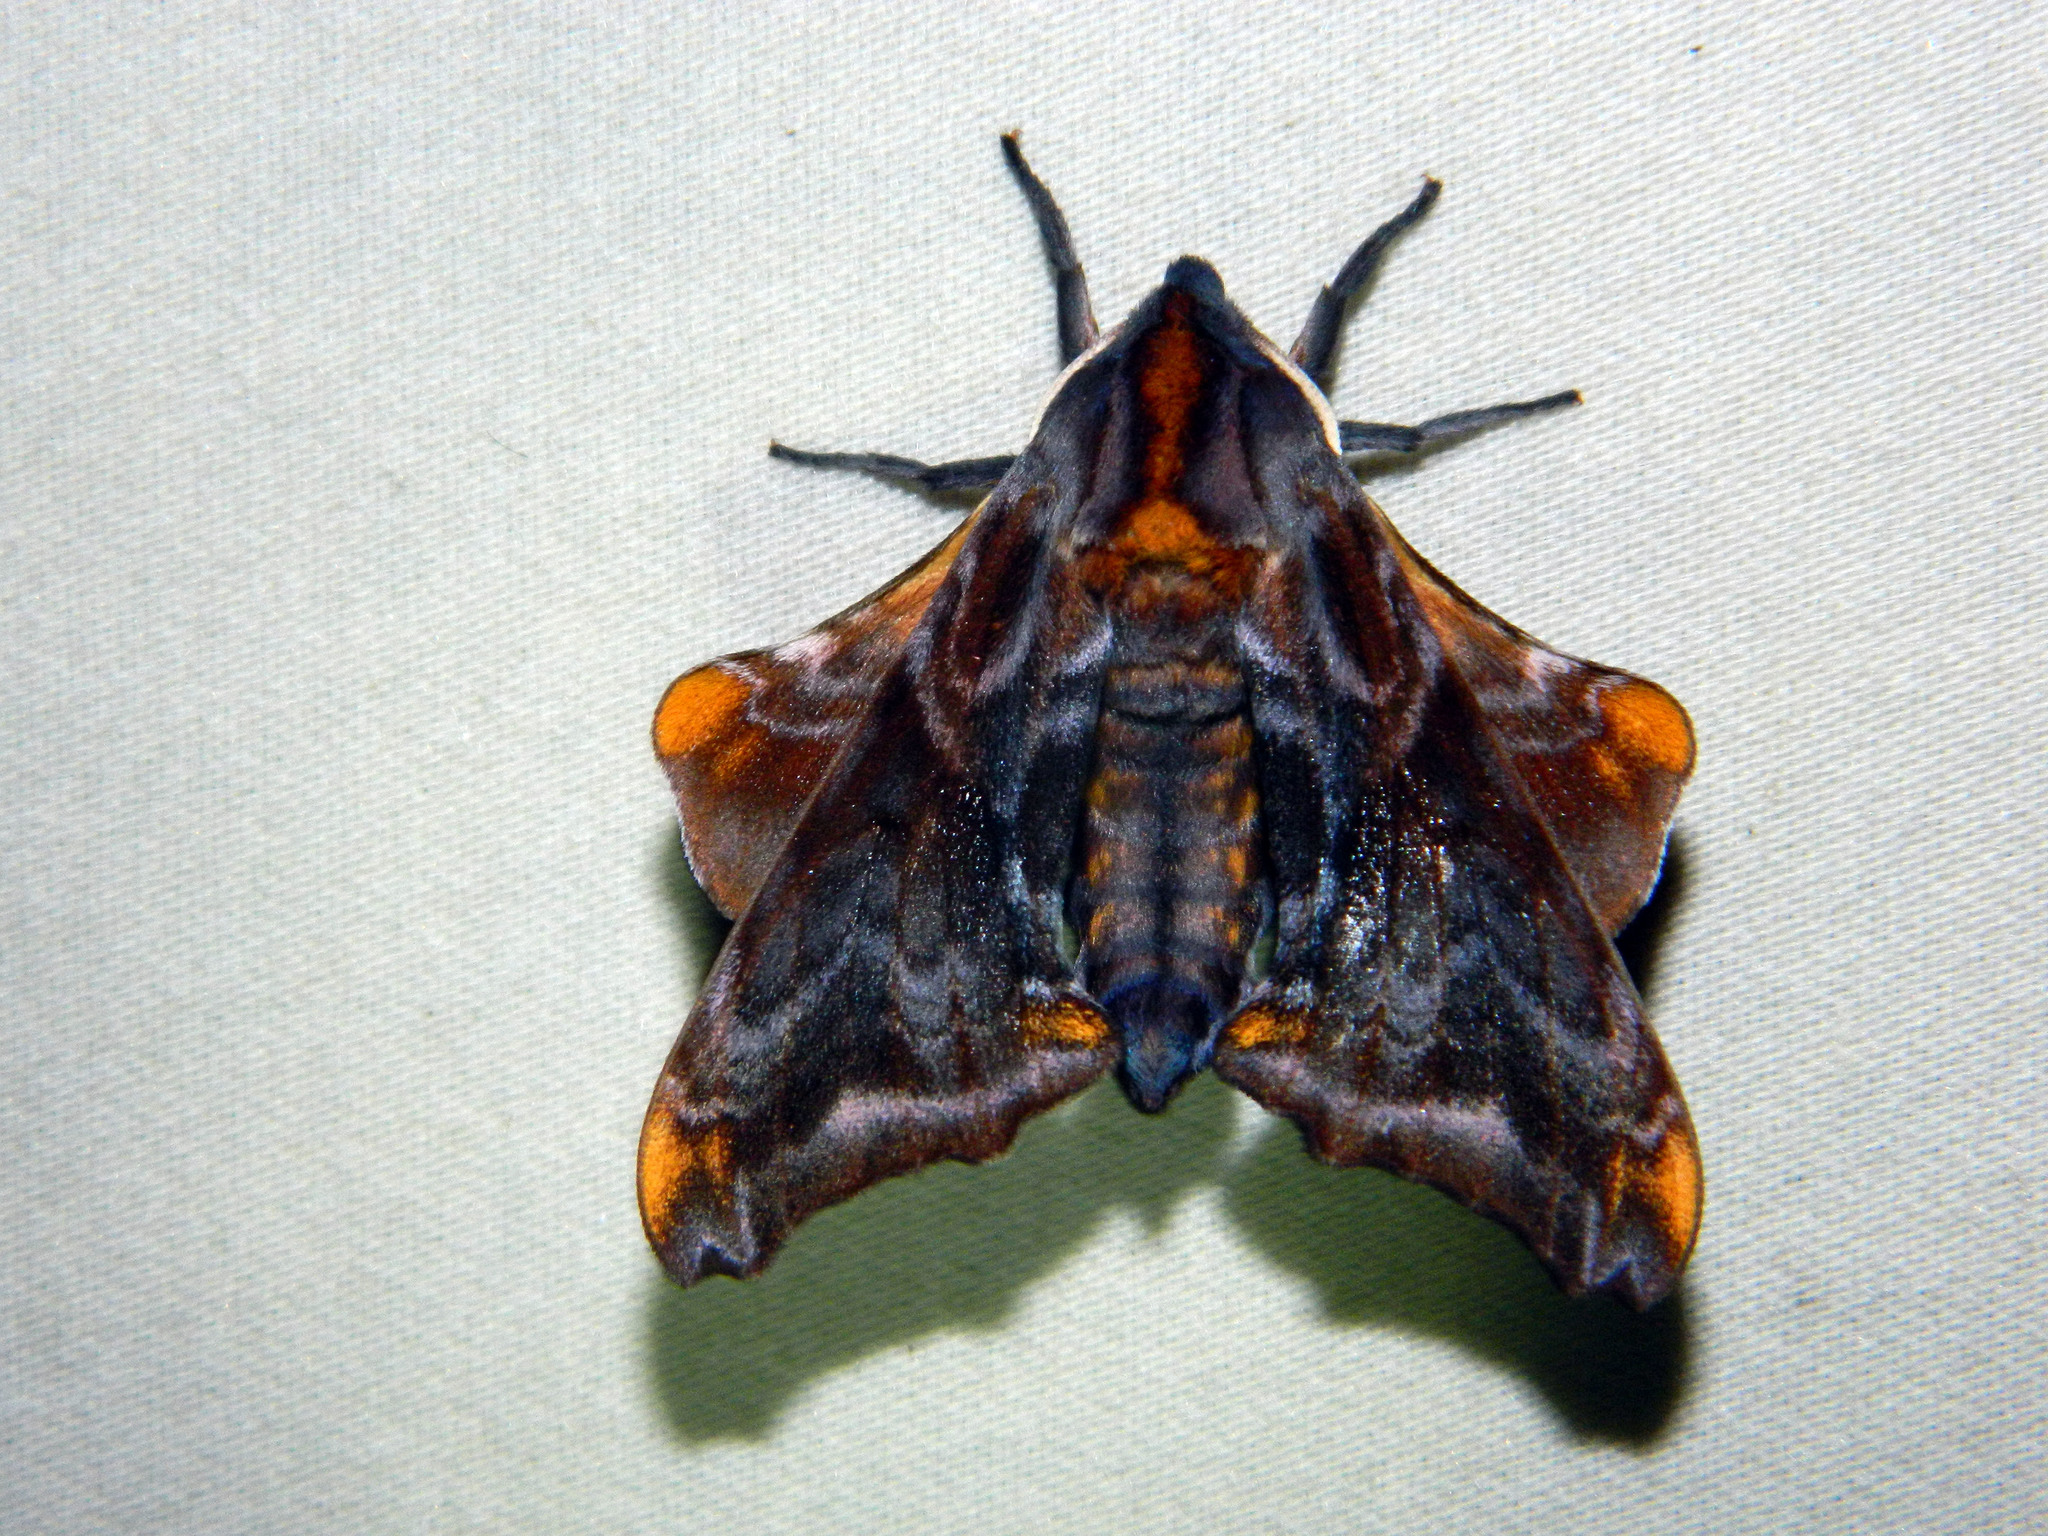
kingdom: Animalia
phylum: Arthropoda
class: Insecta
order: Lepidoptera
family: Sphingidae
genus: Paonias
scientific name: Paonias myops
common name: Small-eyed sphinx
